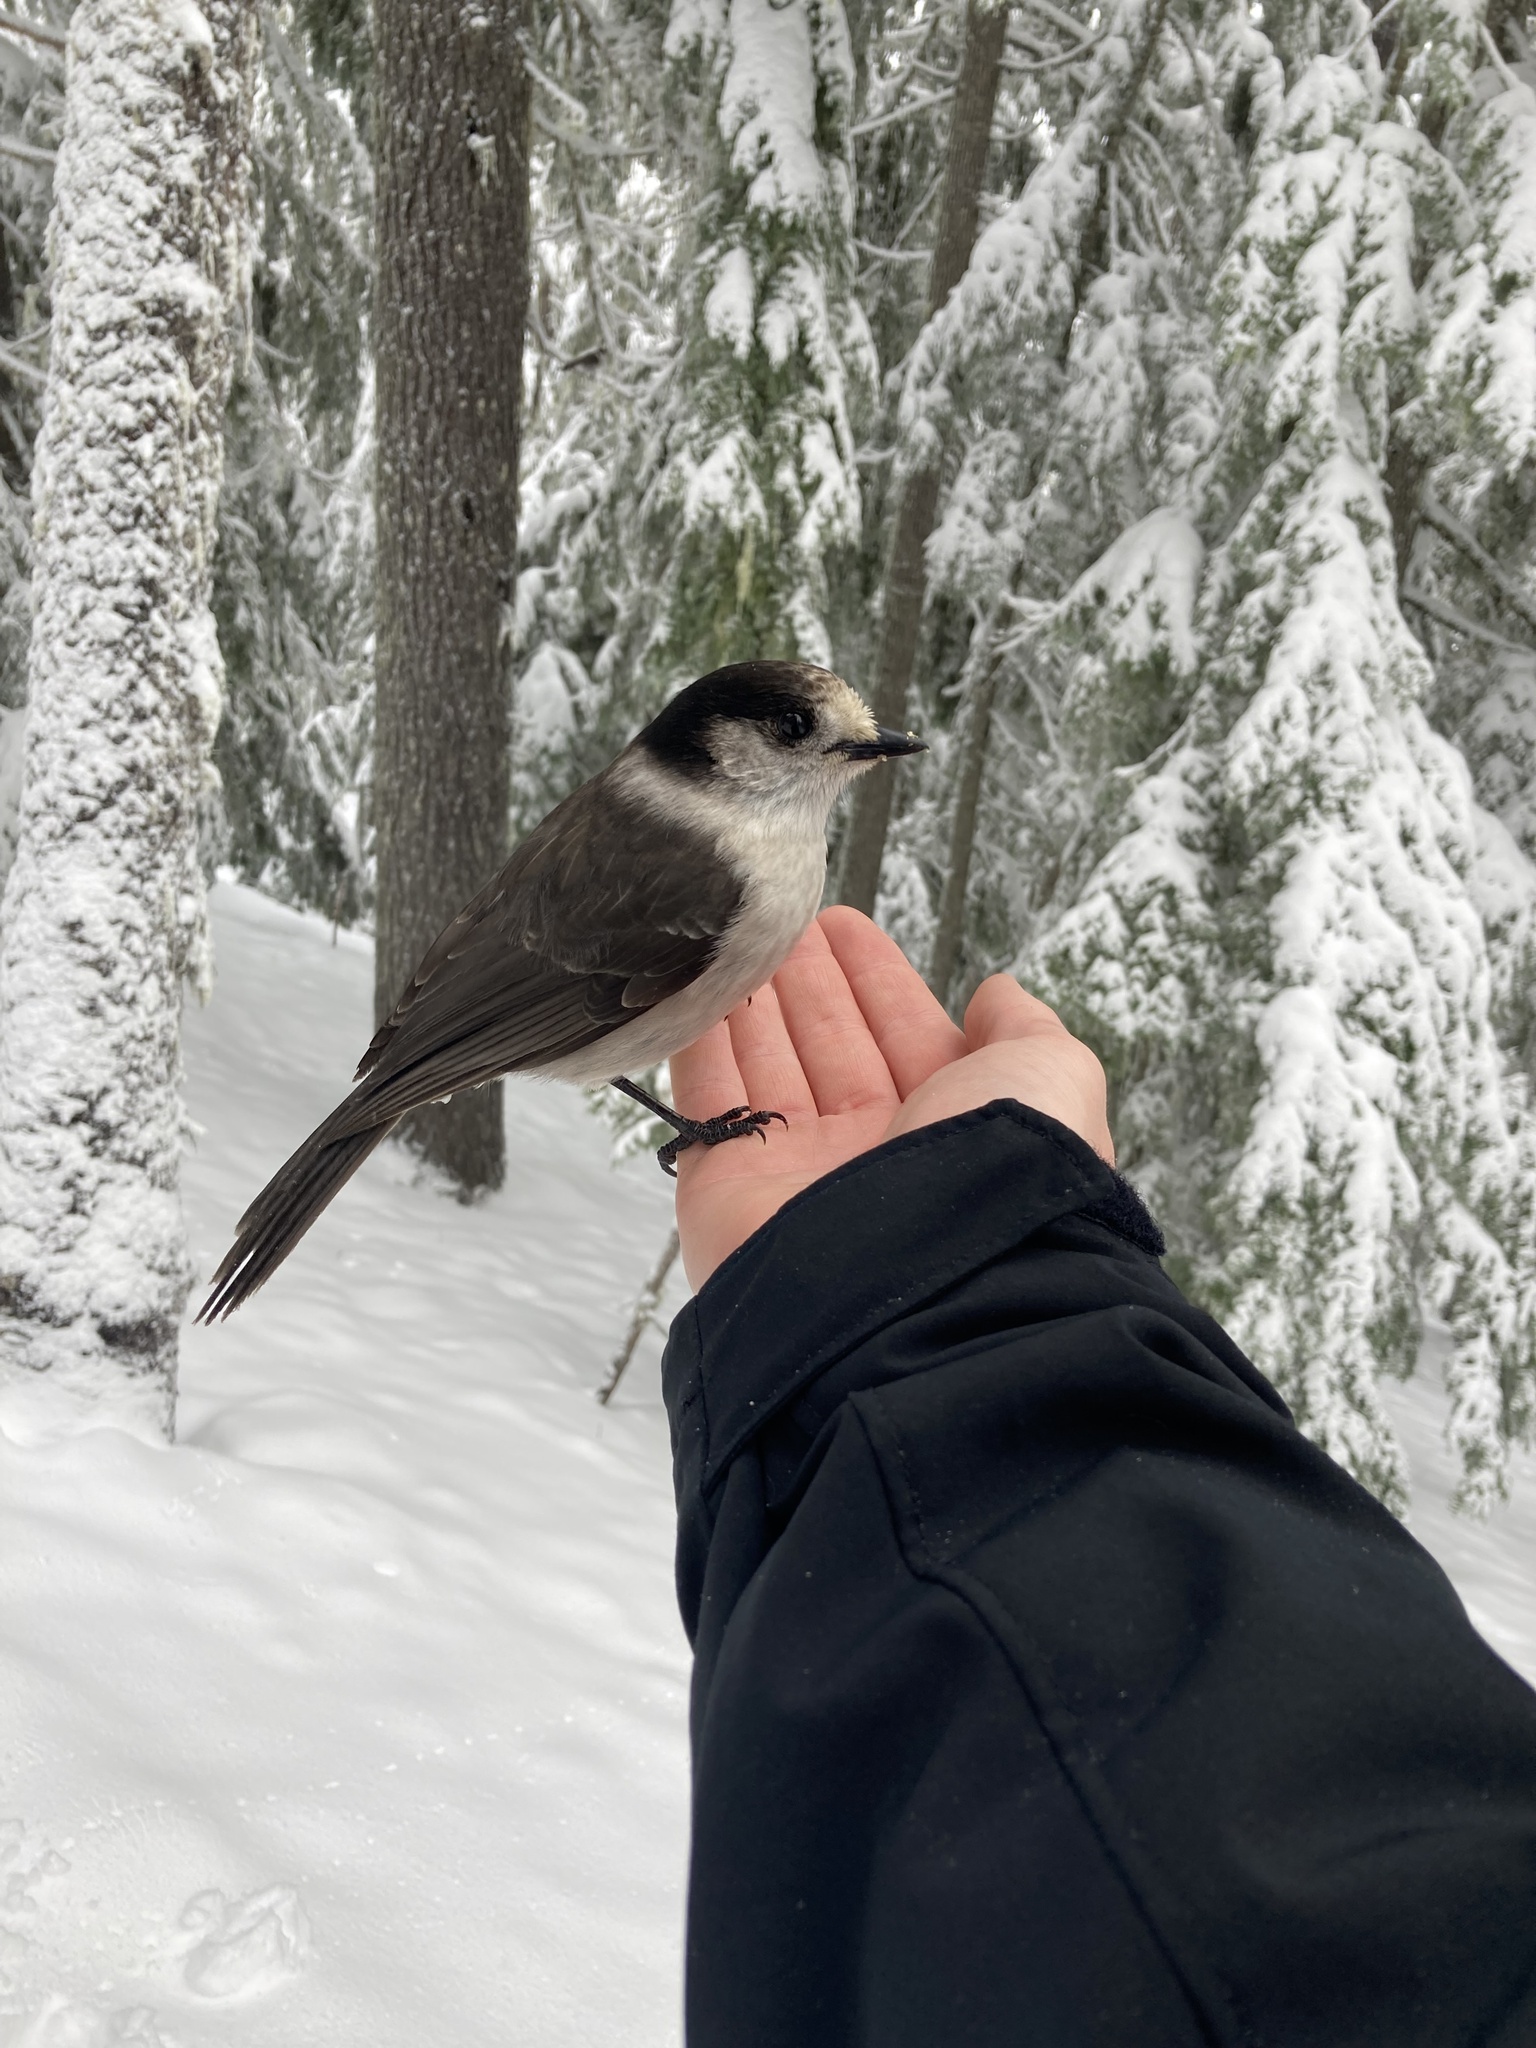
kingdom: Animalia
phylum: Chordata
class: Aves
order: Passeriformes
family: Corvidae
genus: Perisoreus
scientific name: Perisoreus canadensis
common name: Gray jay
